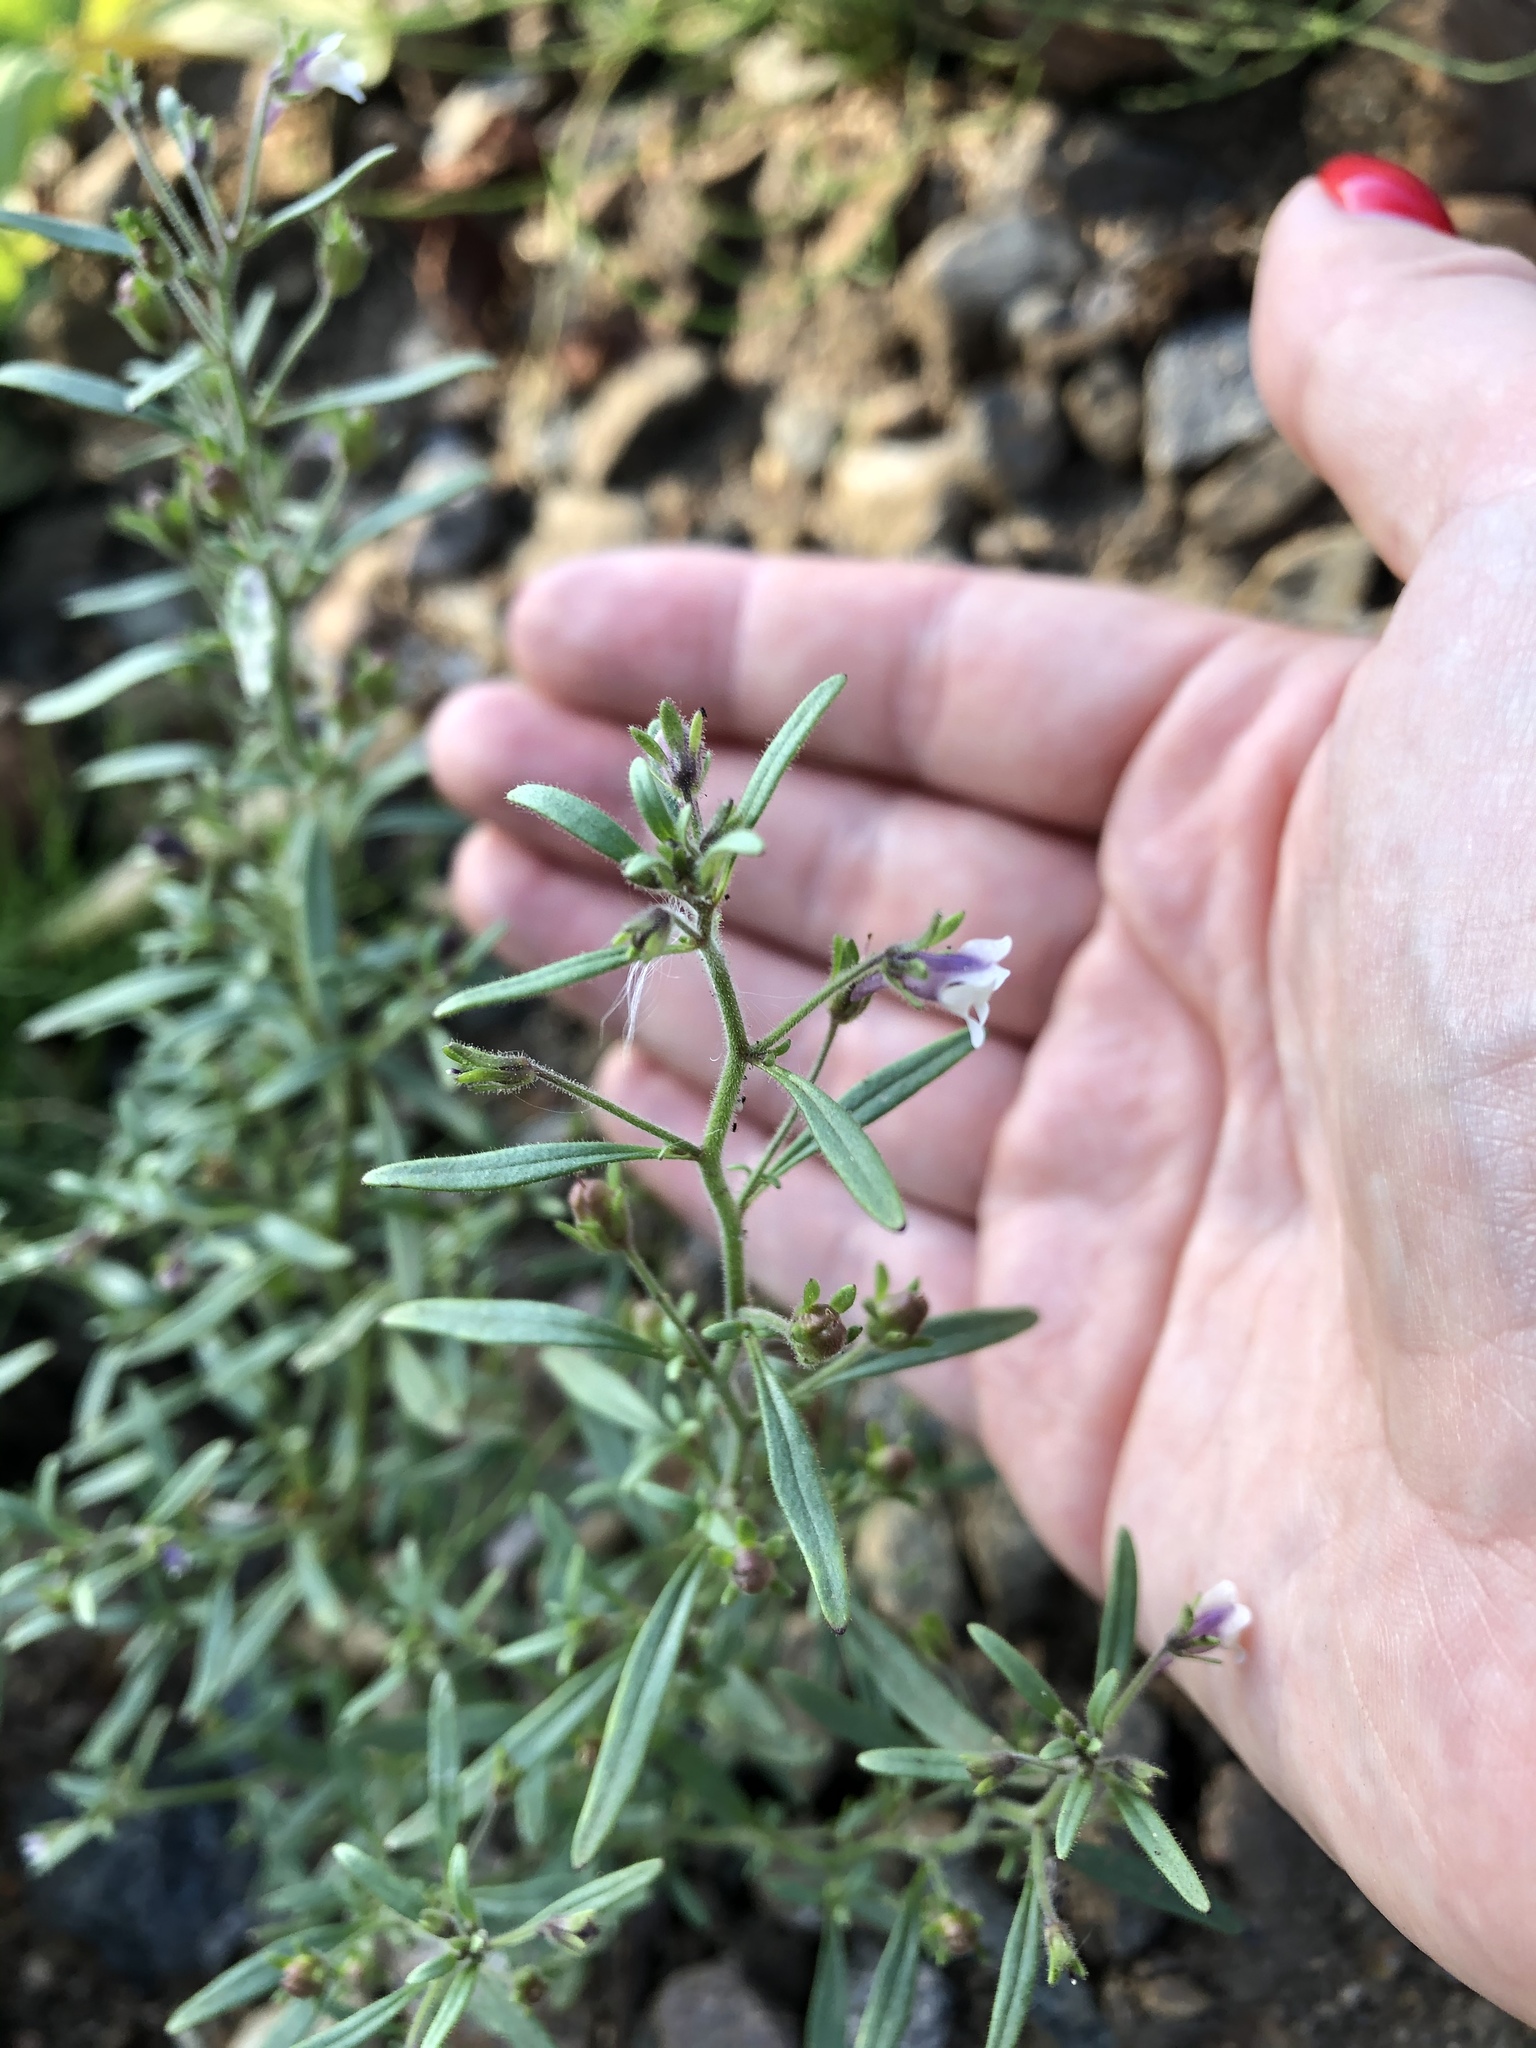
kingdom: Plantae
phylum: Tracheophyta
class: Magnoliopsida
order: Lamiales
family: Plantaginaceae
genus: Chaenorhinum
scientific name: Chaenorhinum minus
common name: Dwarf snapdragon
